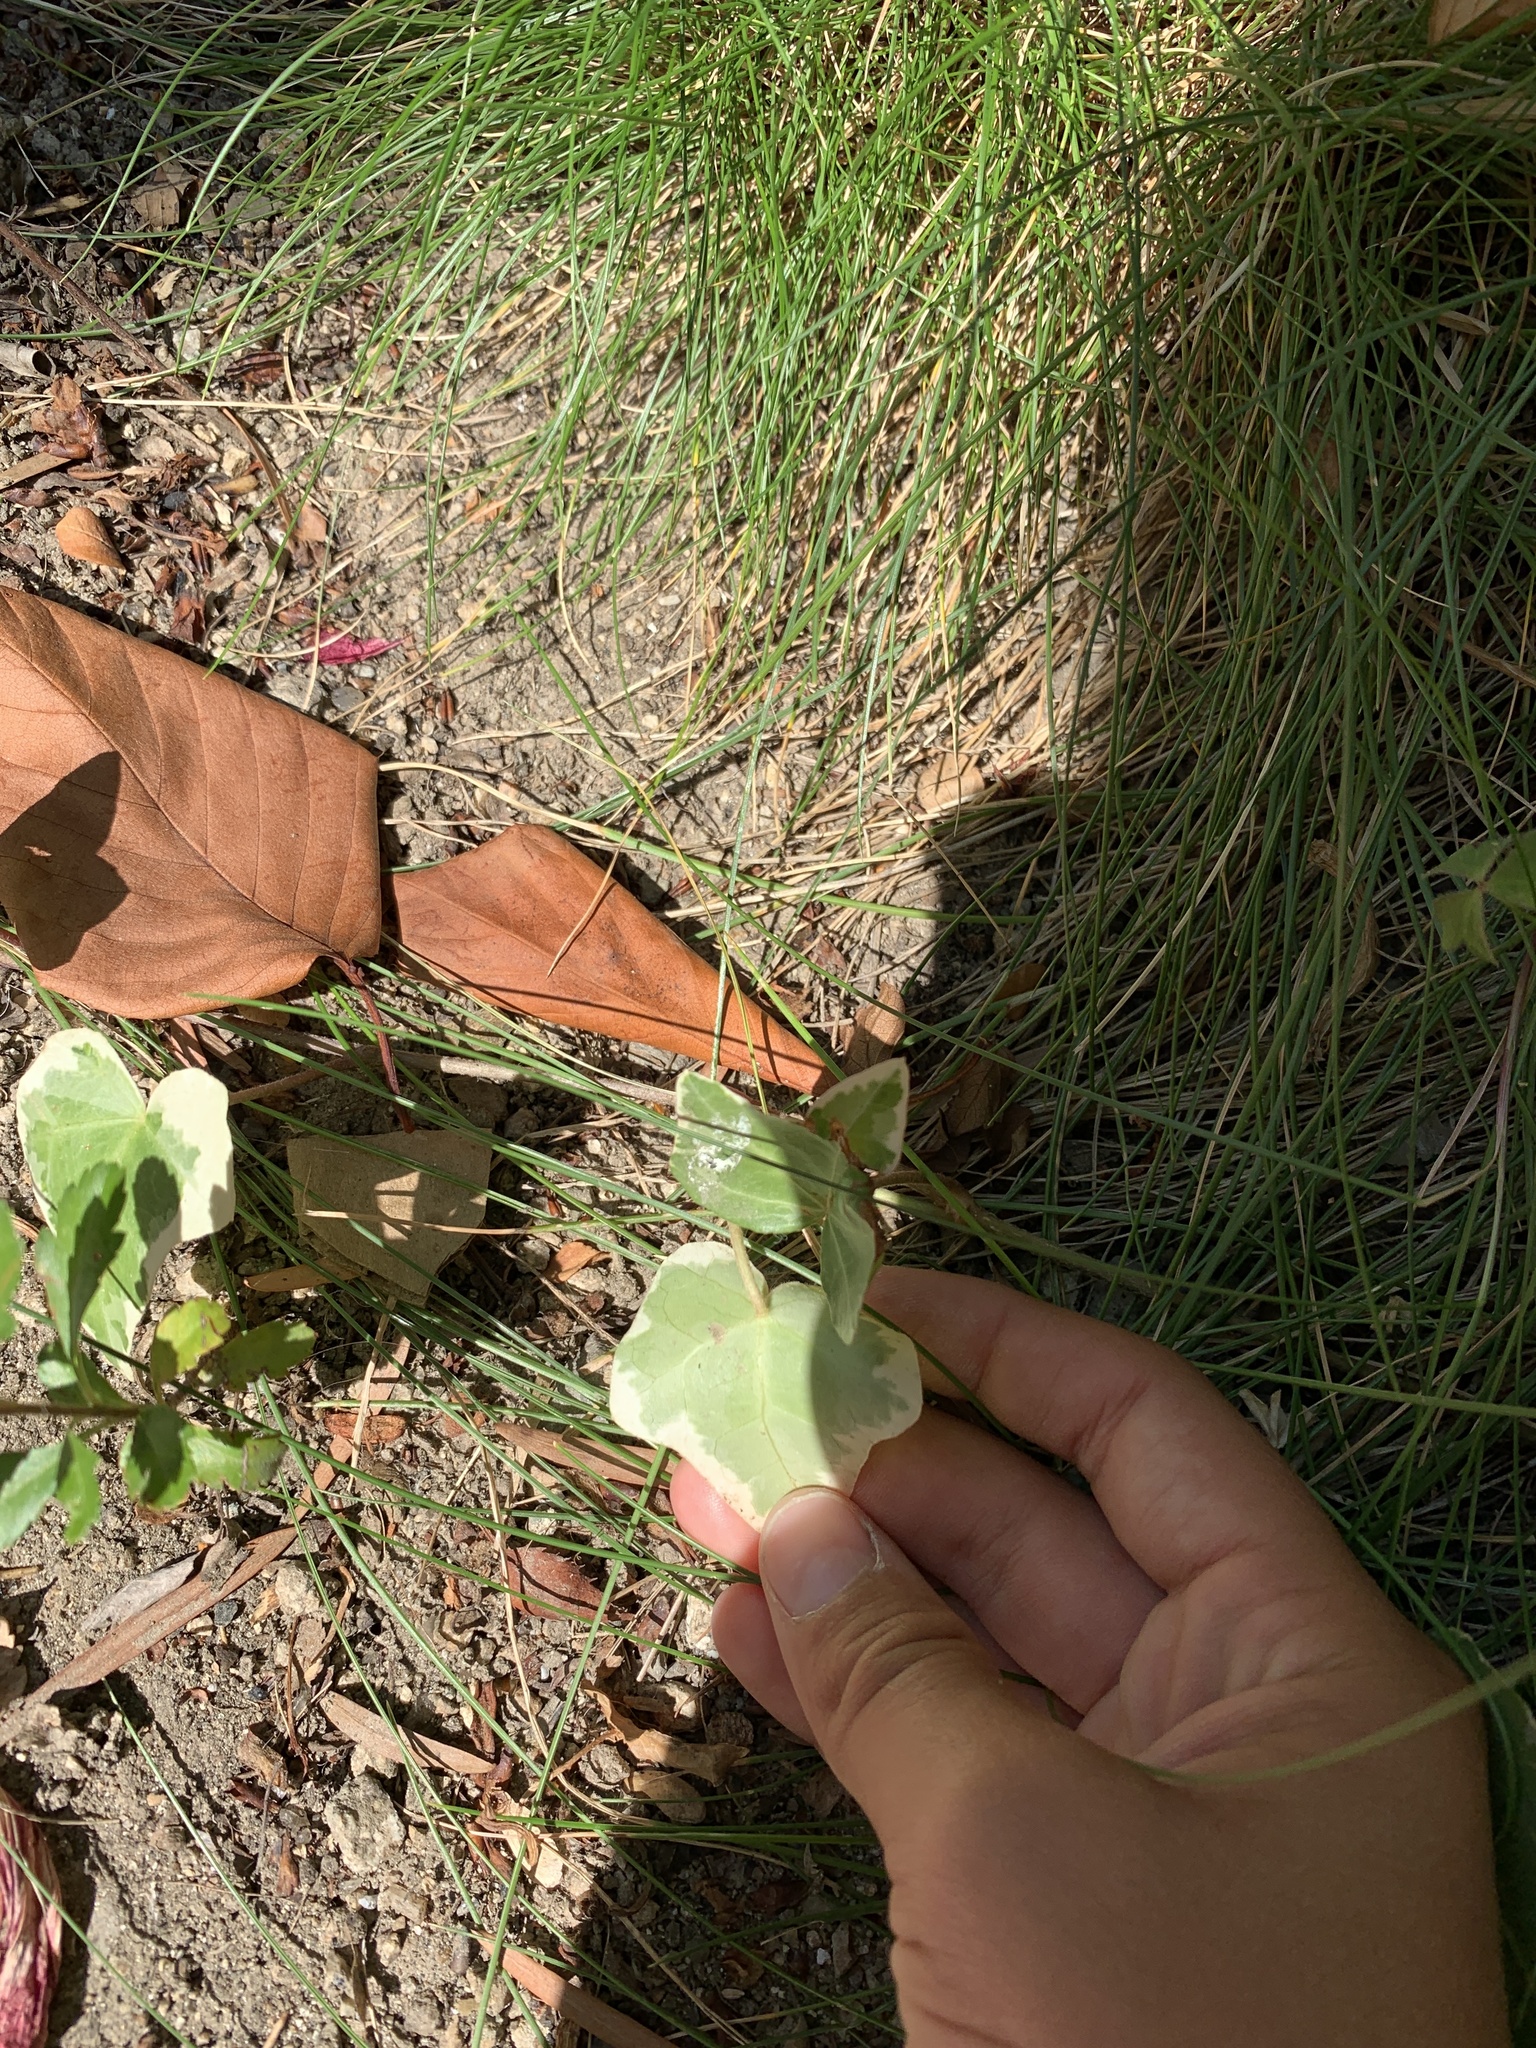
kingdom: Plantae
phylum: Tracheophyta
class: Magnoliopsida
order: Apiales
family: Araliaceae
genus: Hedera
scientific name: Hedera helix
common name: Ivy
